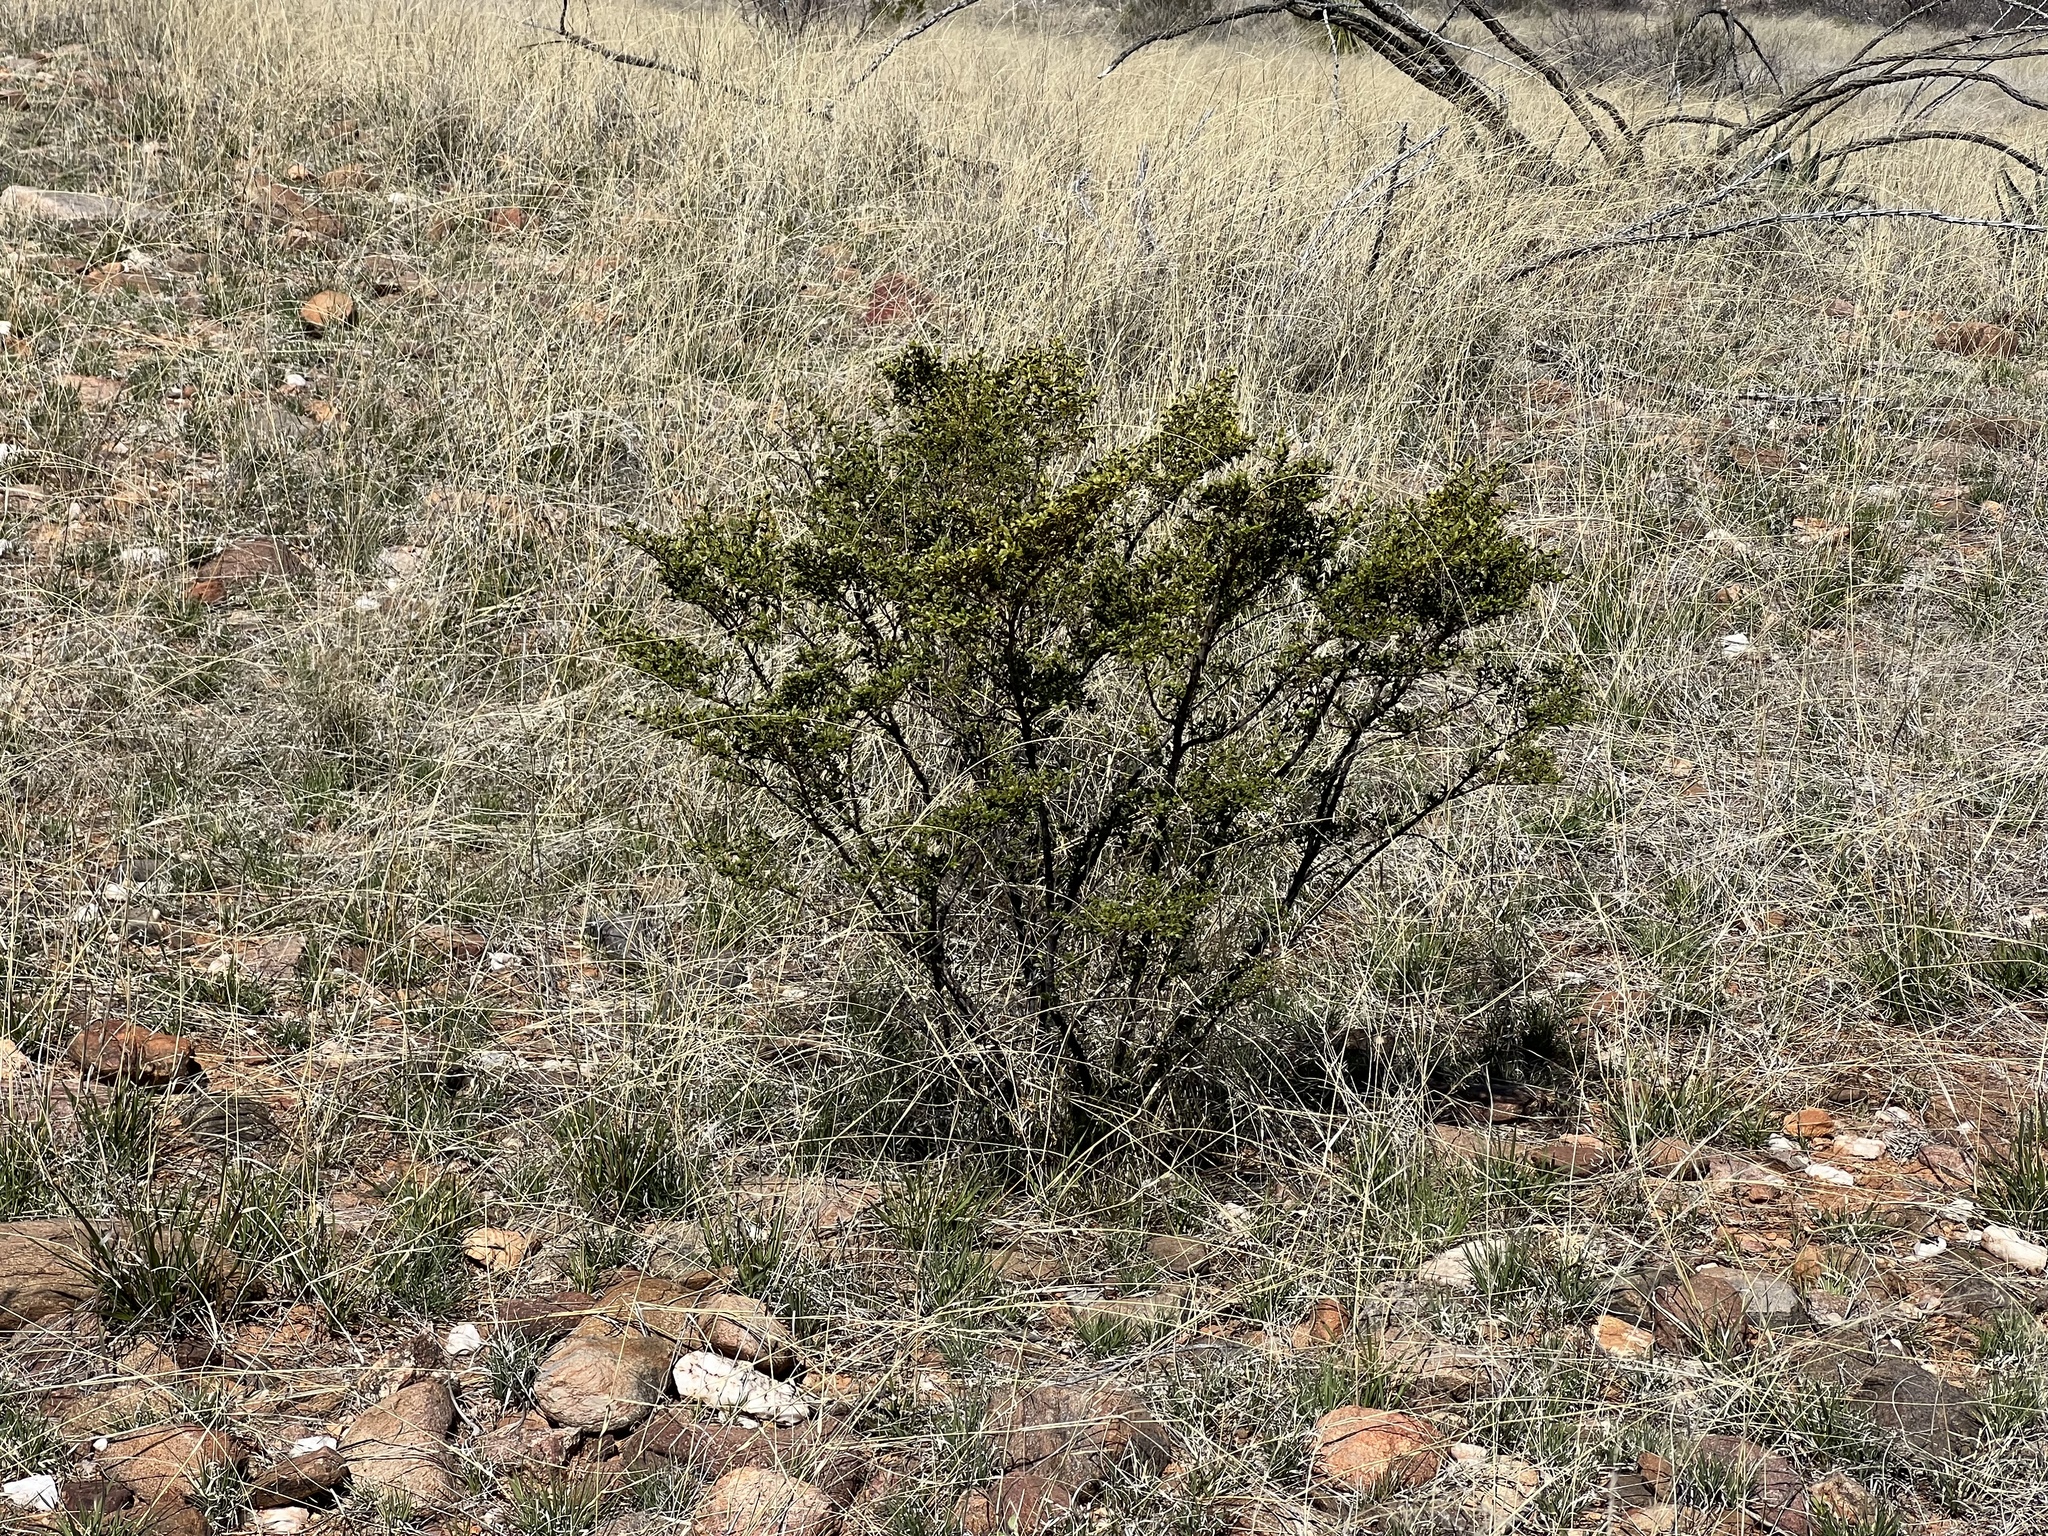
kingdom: Plantae
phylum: Tracheophyta
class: Magnoliopsida
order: Zygophyllales
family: Zygophyllaceae
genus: Larrea
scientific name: Larrea tridentata
